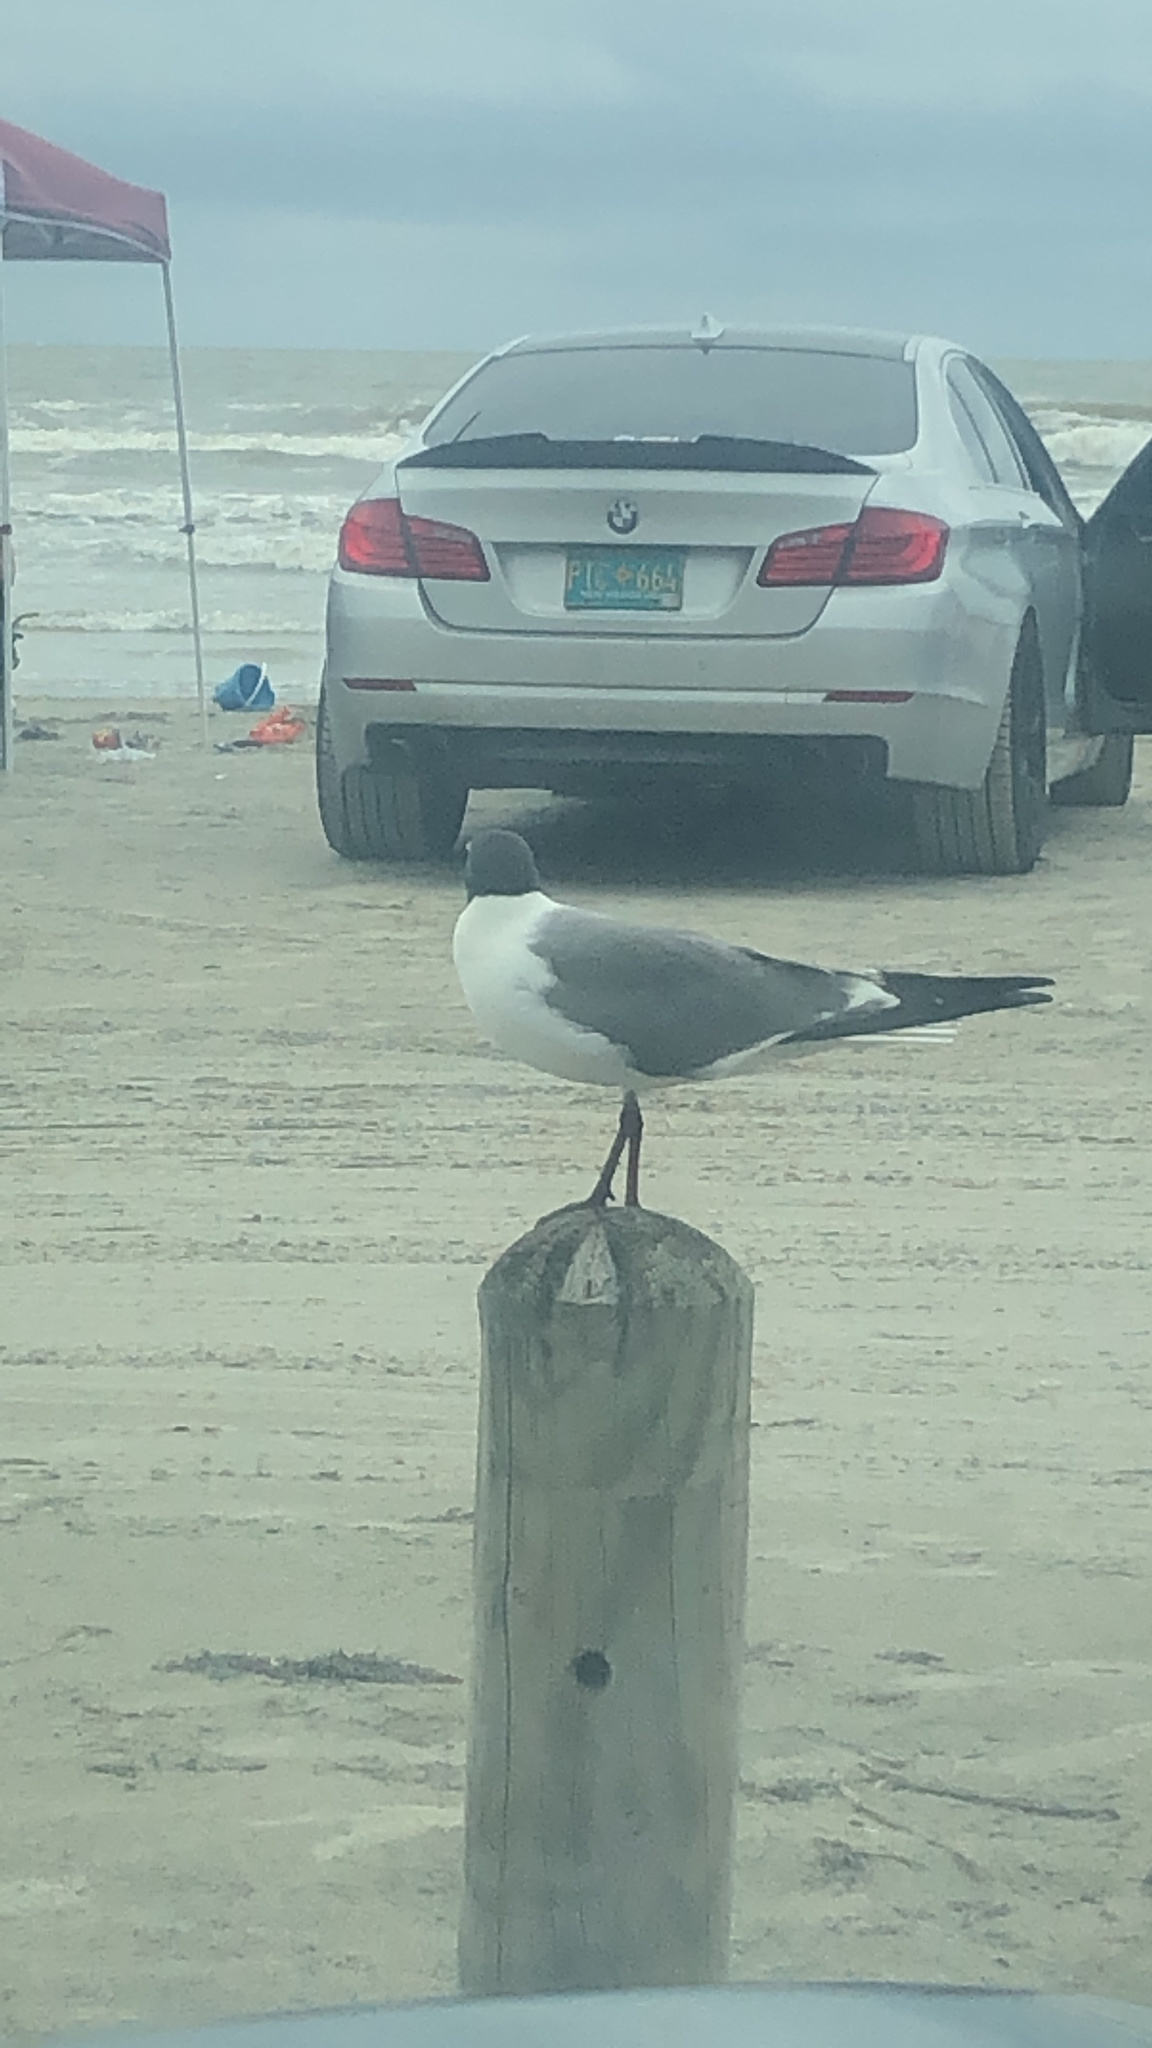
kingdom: Animalia
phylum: Chordata
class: Aves
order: Charadriiformes
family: Laridae
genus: Leucophaeus
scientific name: Leucophaeus atricilla
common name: Laughing gull
